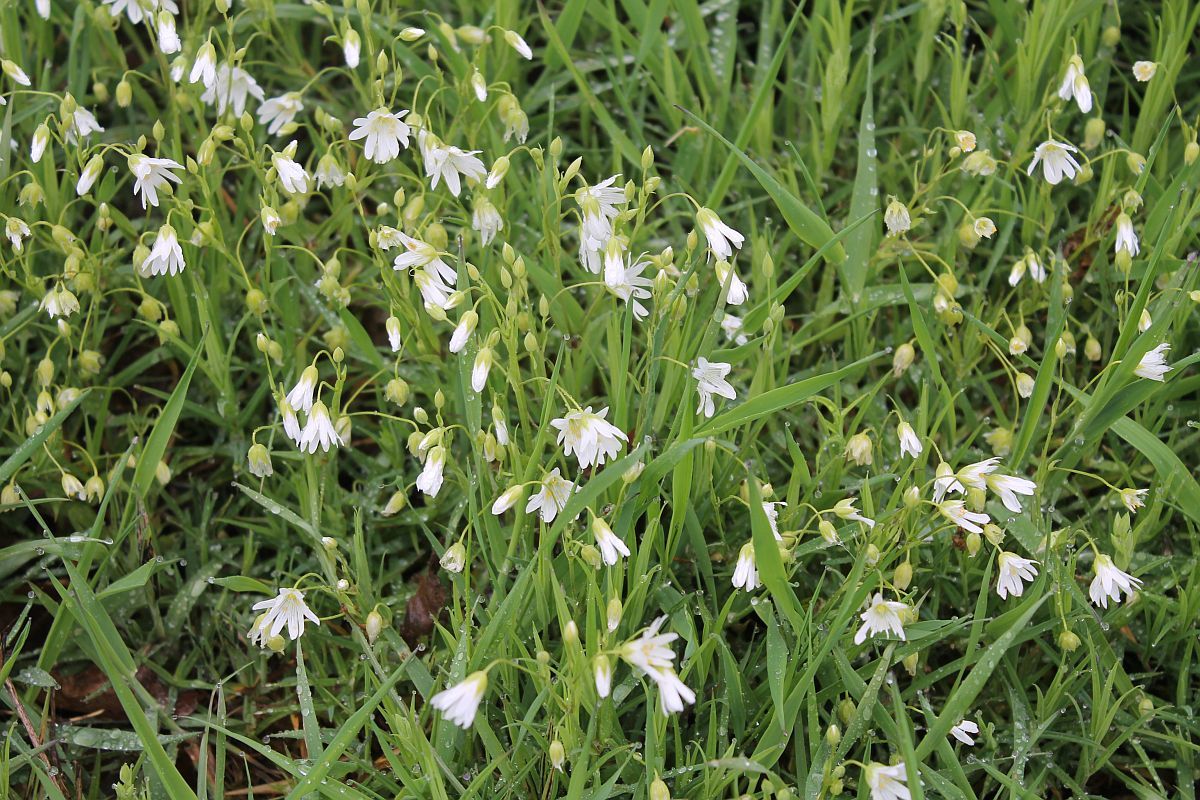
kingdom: Plantae
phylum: Tracheophyta
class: Magnoliopsida
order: Caryophyllales
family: Caryophyllaceae
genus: Rabelera
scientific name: Rabelera holostea
